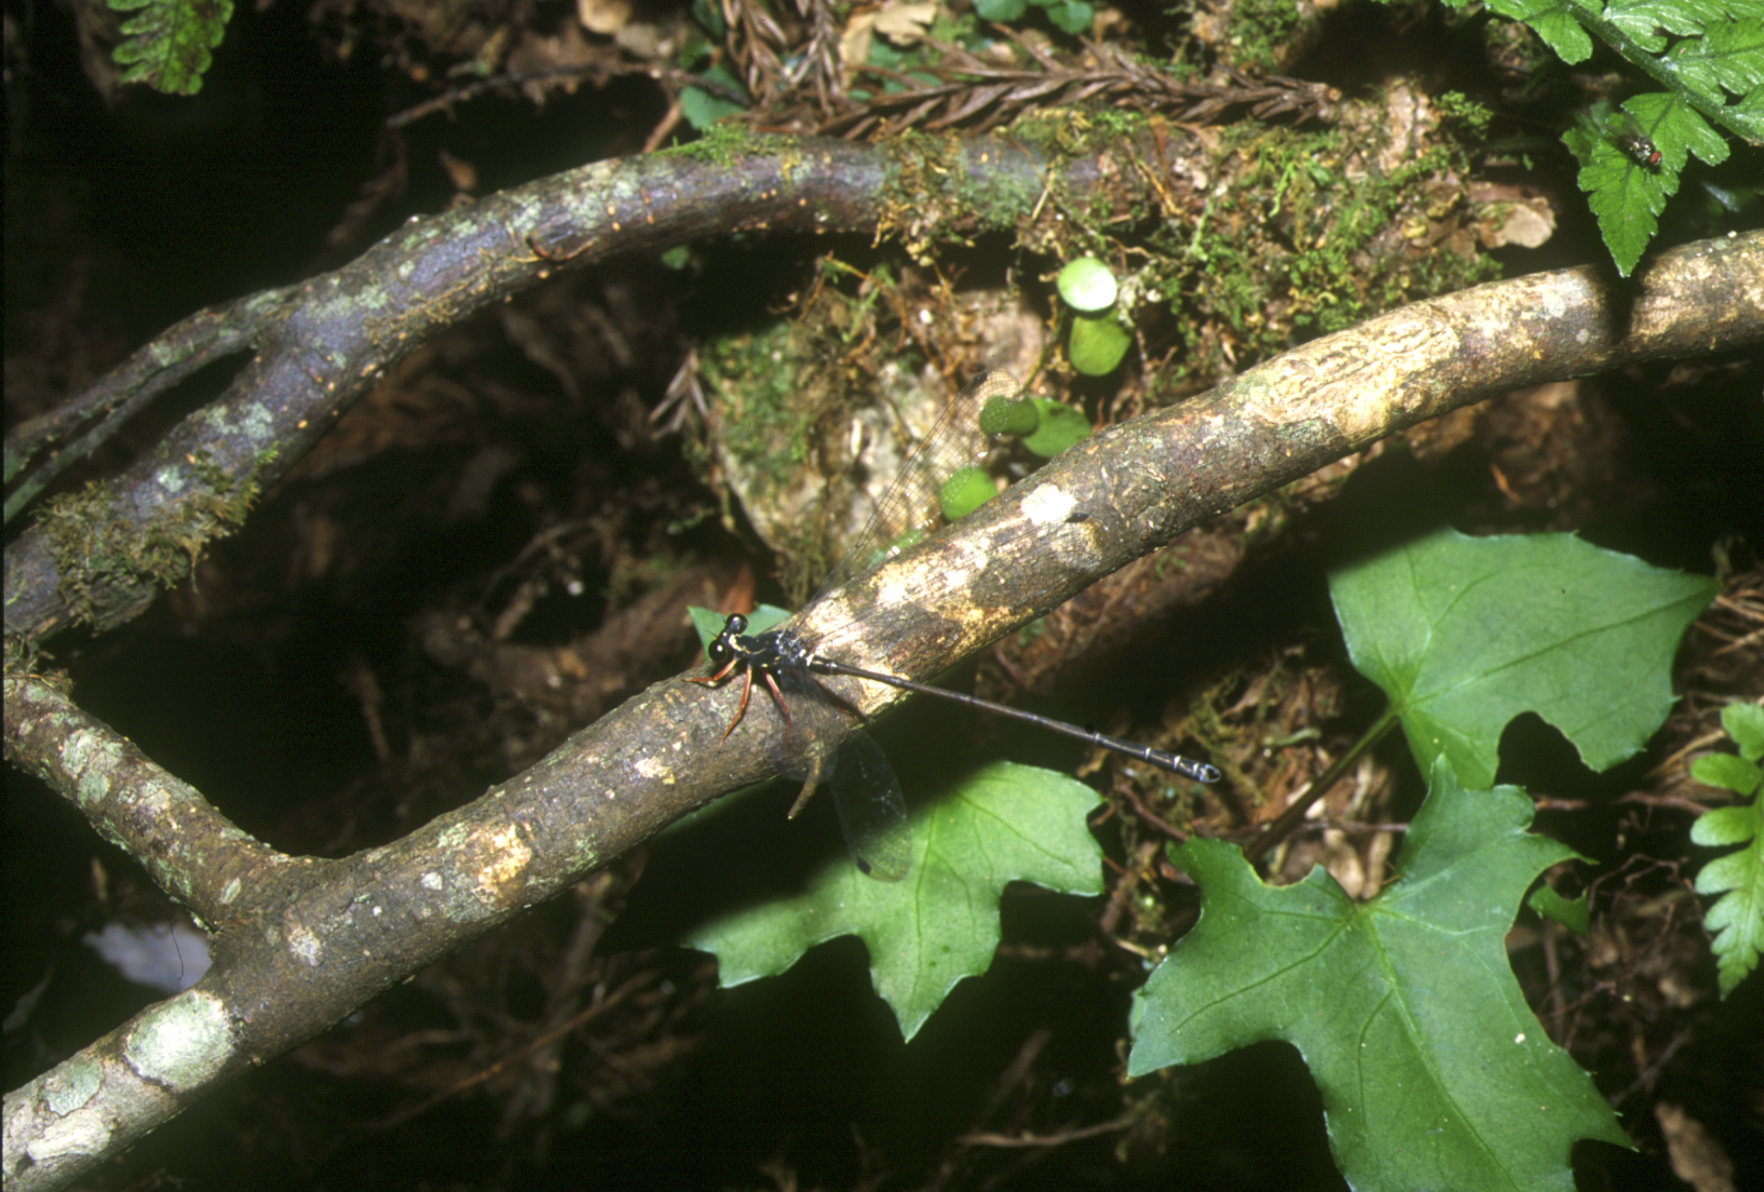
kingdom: Animalia
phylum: Arthropoda
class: Insecta
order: Odonata
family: Megapodagrionidae
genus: Rhipidolestes
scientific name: Rhipidolestes hiraoi
